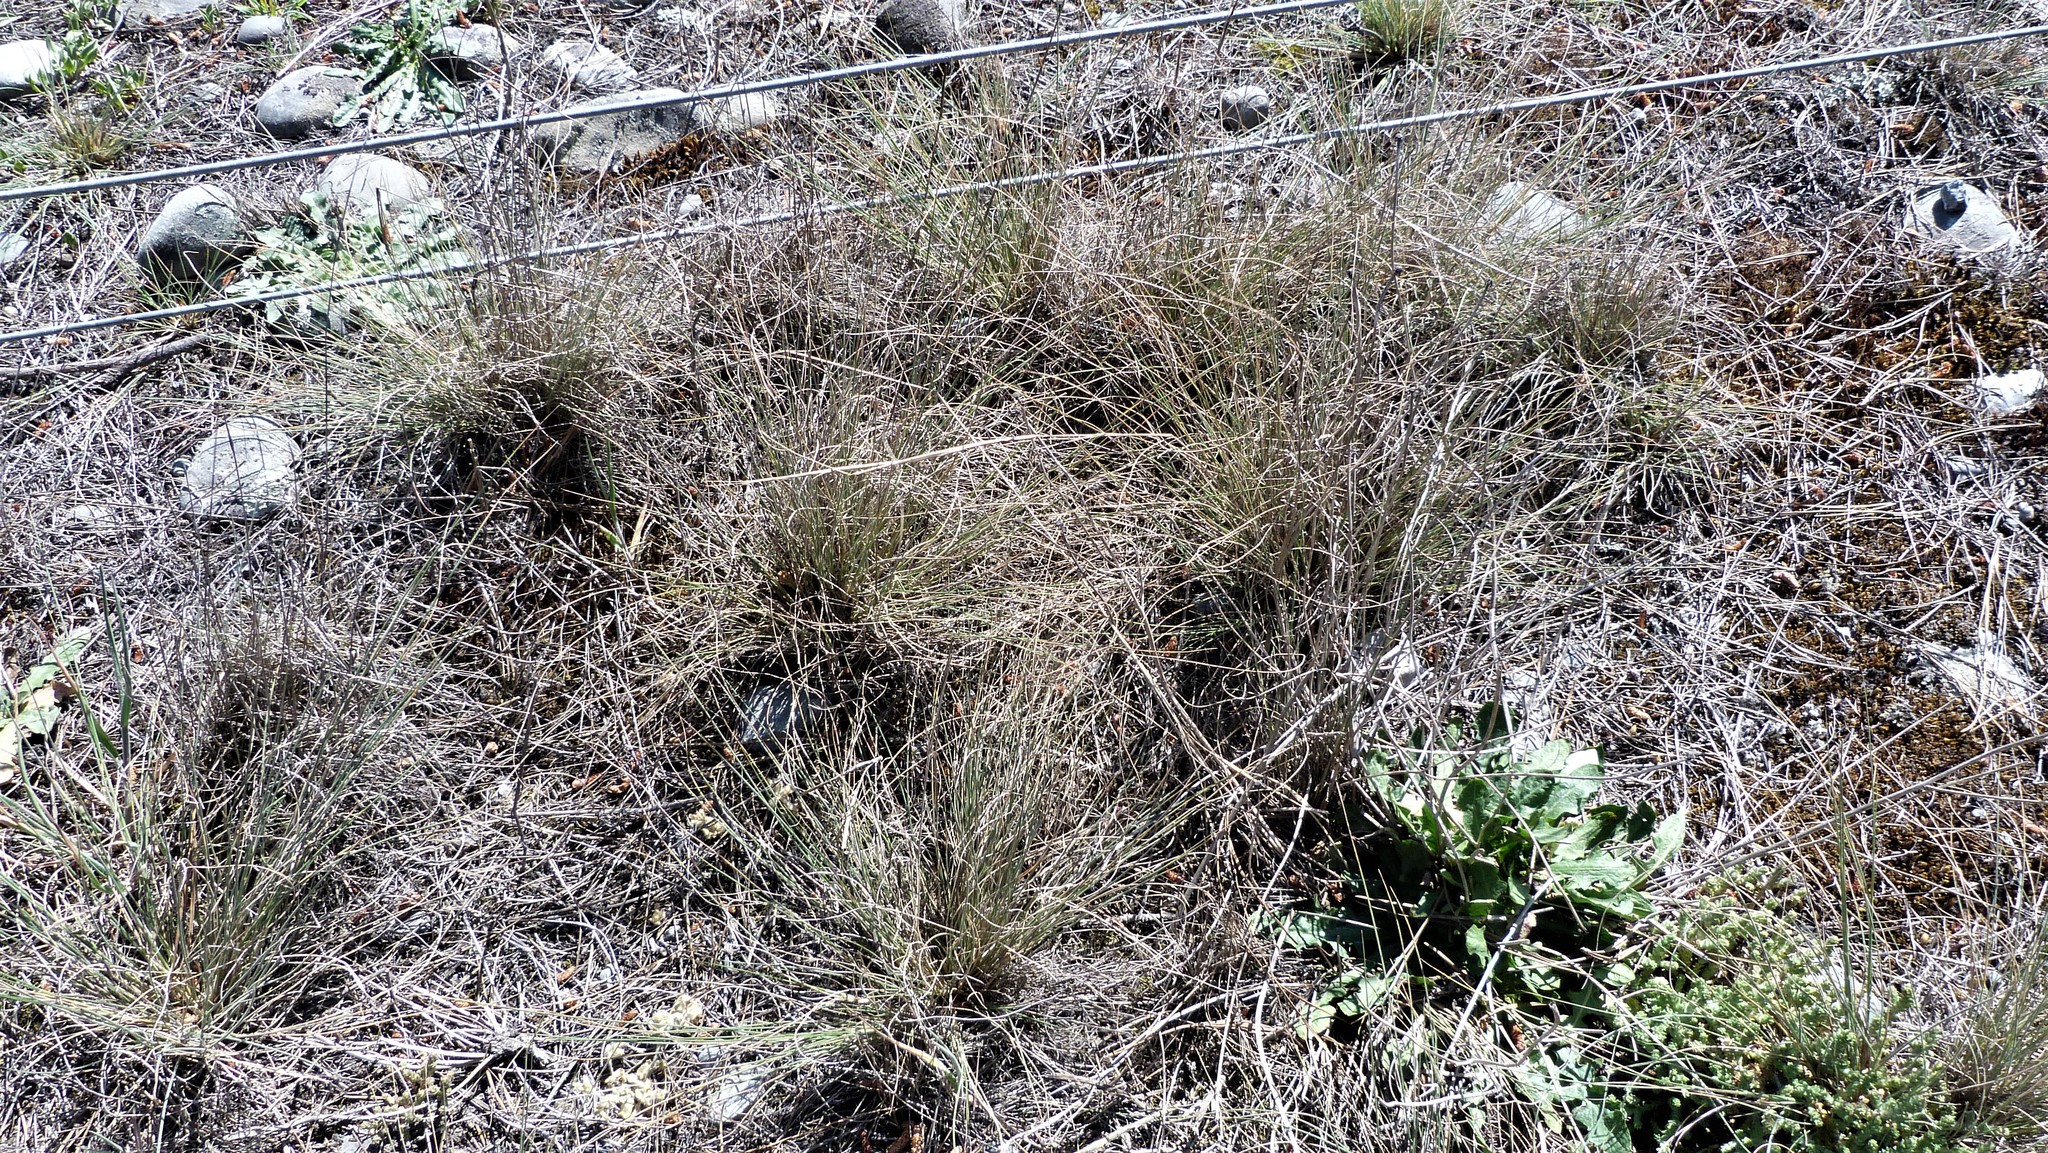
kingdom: Plantae
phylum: Tracheophyta
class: Liliopsida
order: Poales
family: Poaceae
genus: Anthosachne
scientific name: Anthosachne solandri
